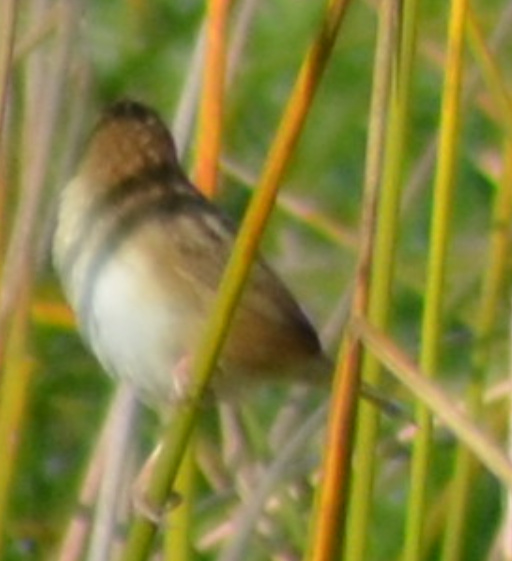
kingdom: Animalia
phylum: Chordata
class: Aves
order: Passeriformes
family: Cisticolidae
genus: Cisticola
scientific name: Cisticola juncidis
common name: Zitting cisticola
